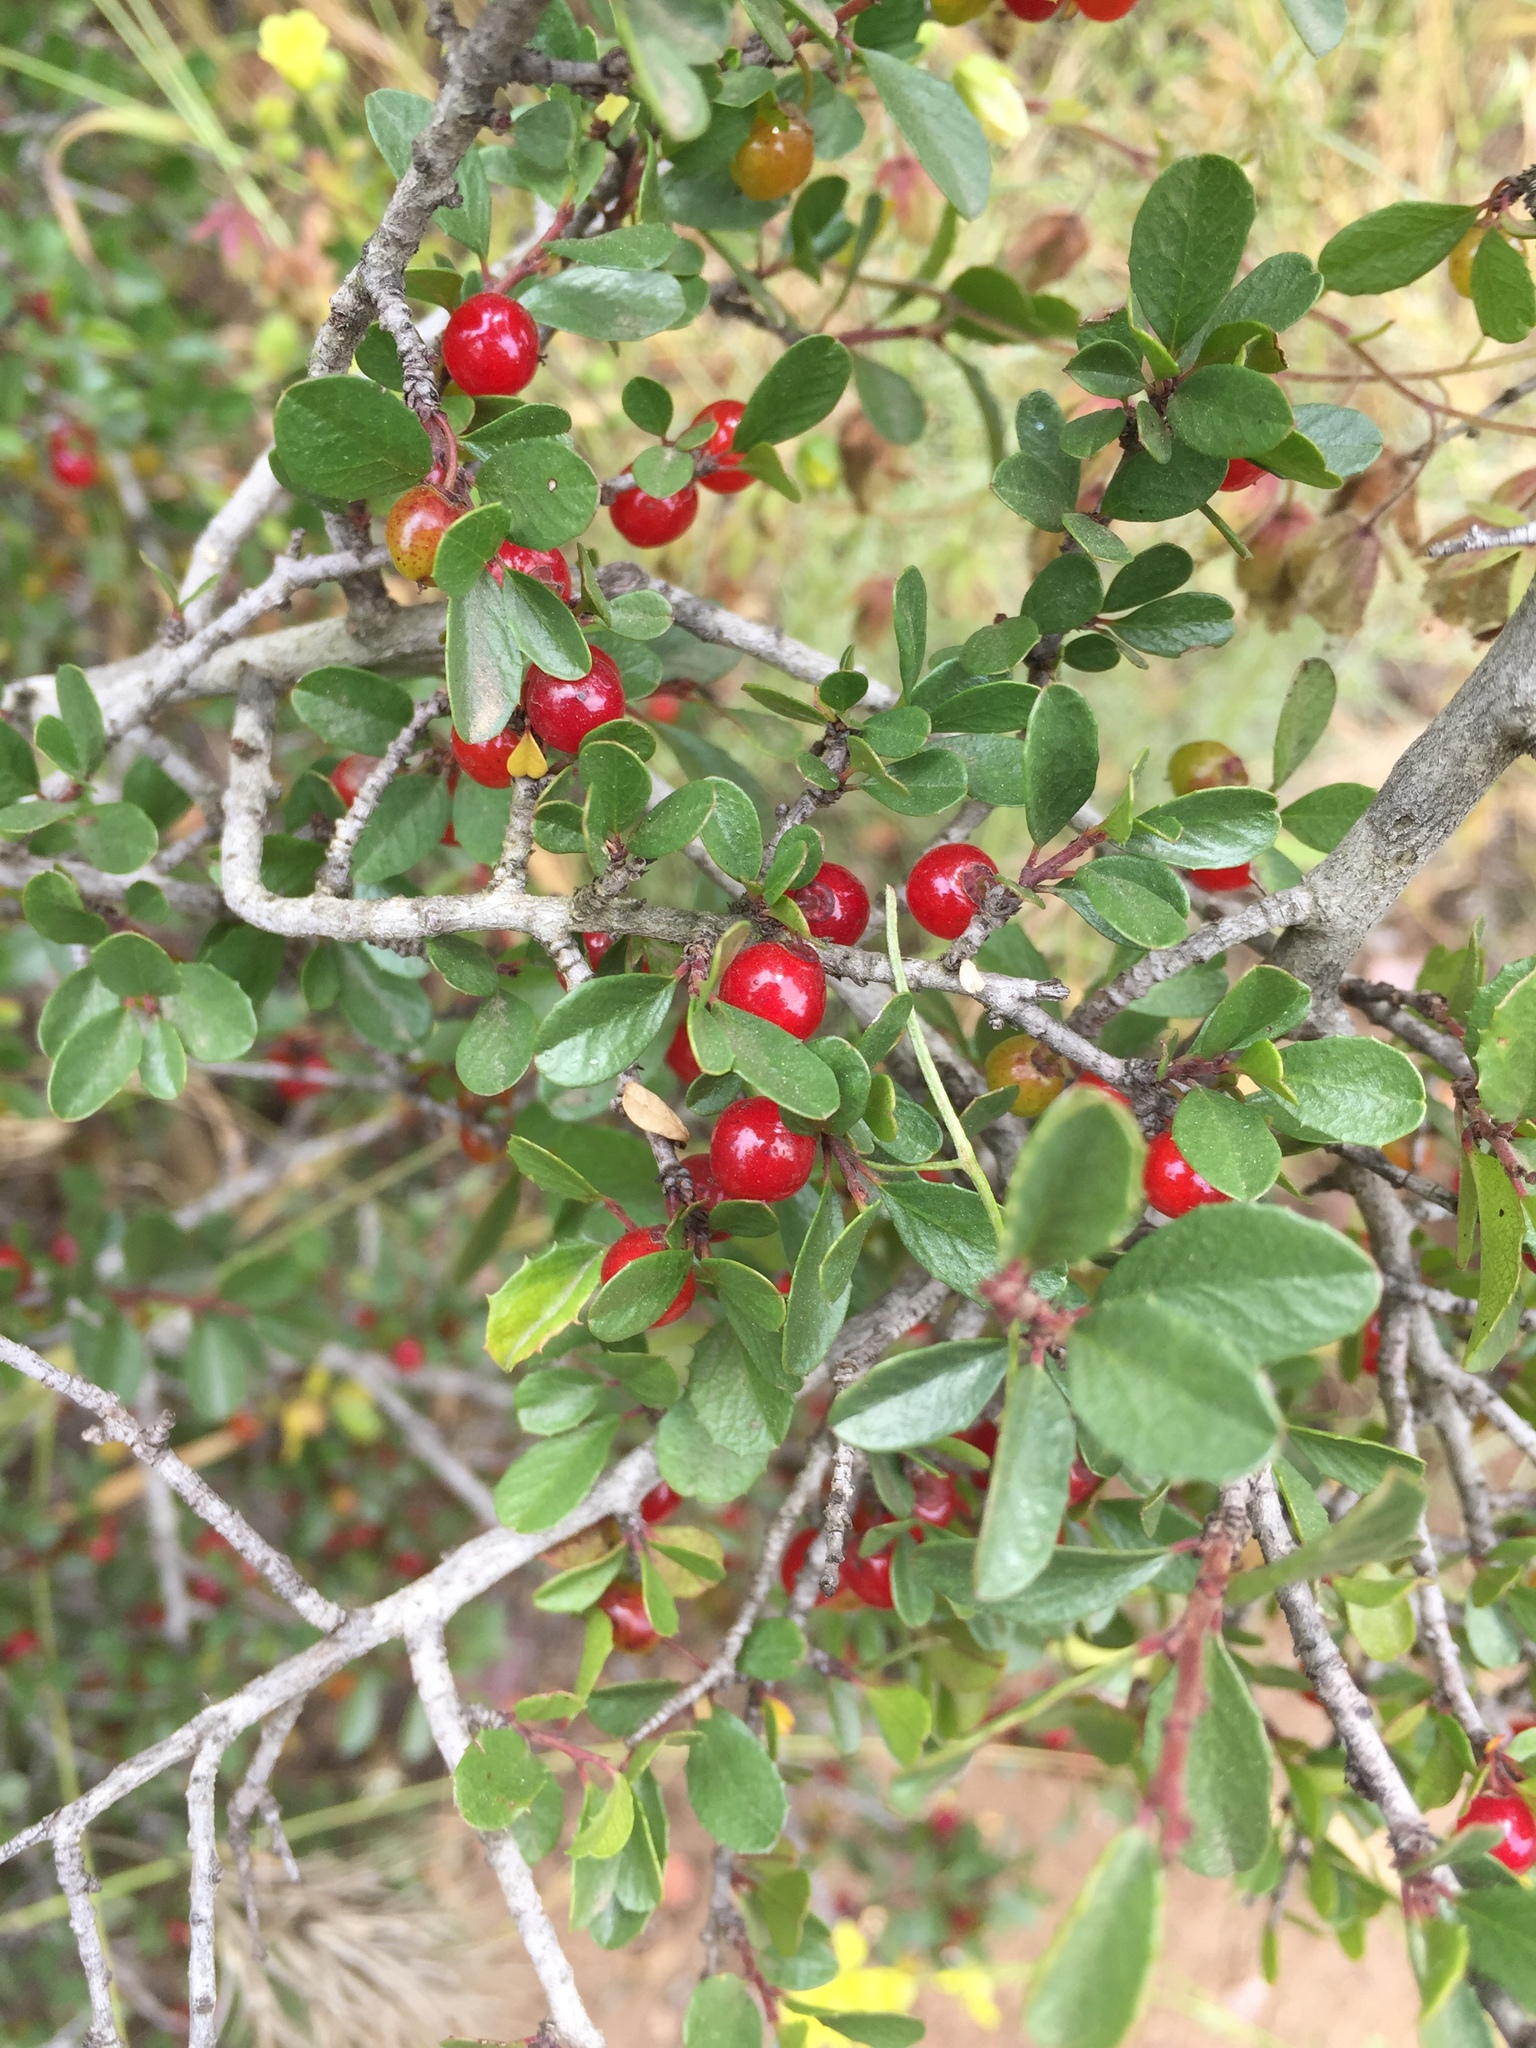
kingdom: Plantae
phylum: Tracheophyta
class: Magnoliopsida
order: Rosales
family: Rhamnaceae
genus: Endotropis
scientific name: Endotropis crocea
